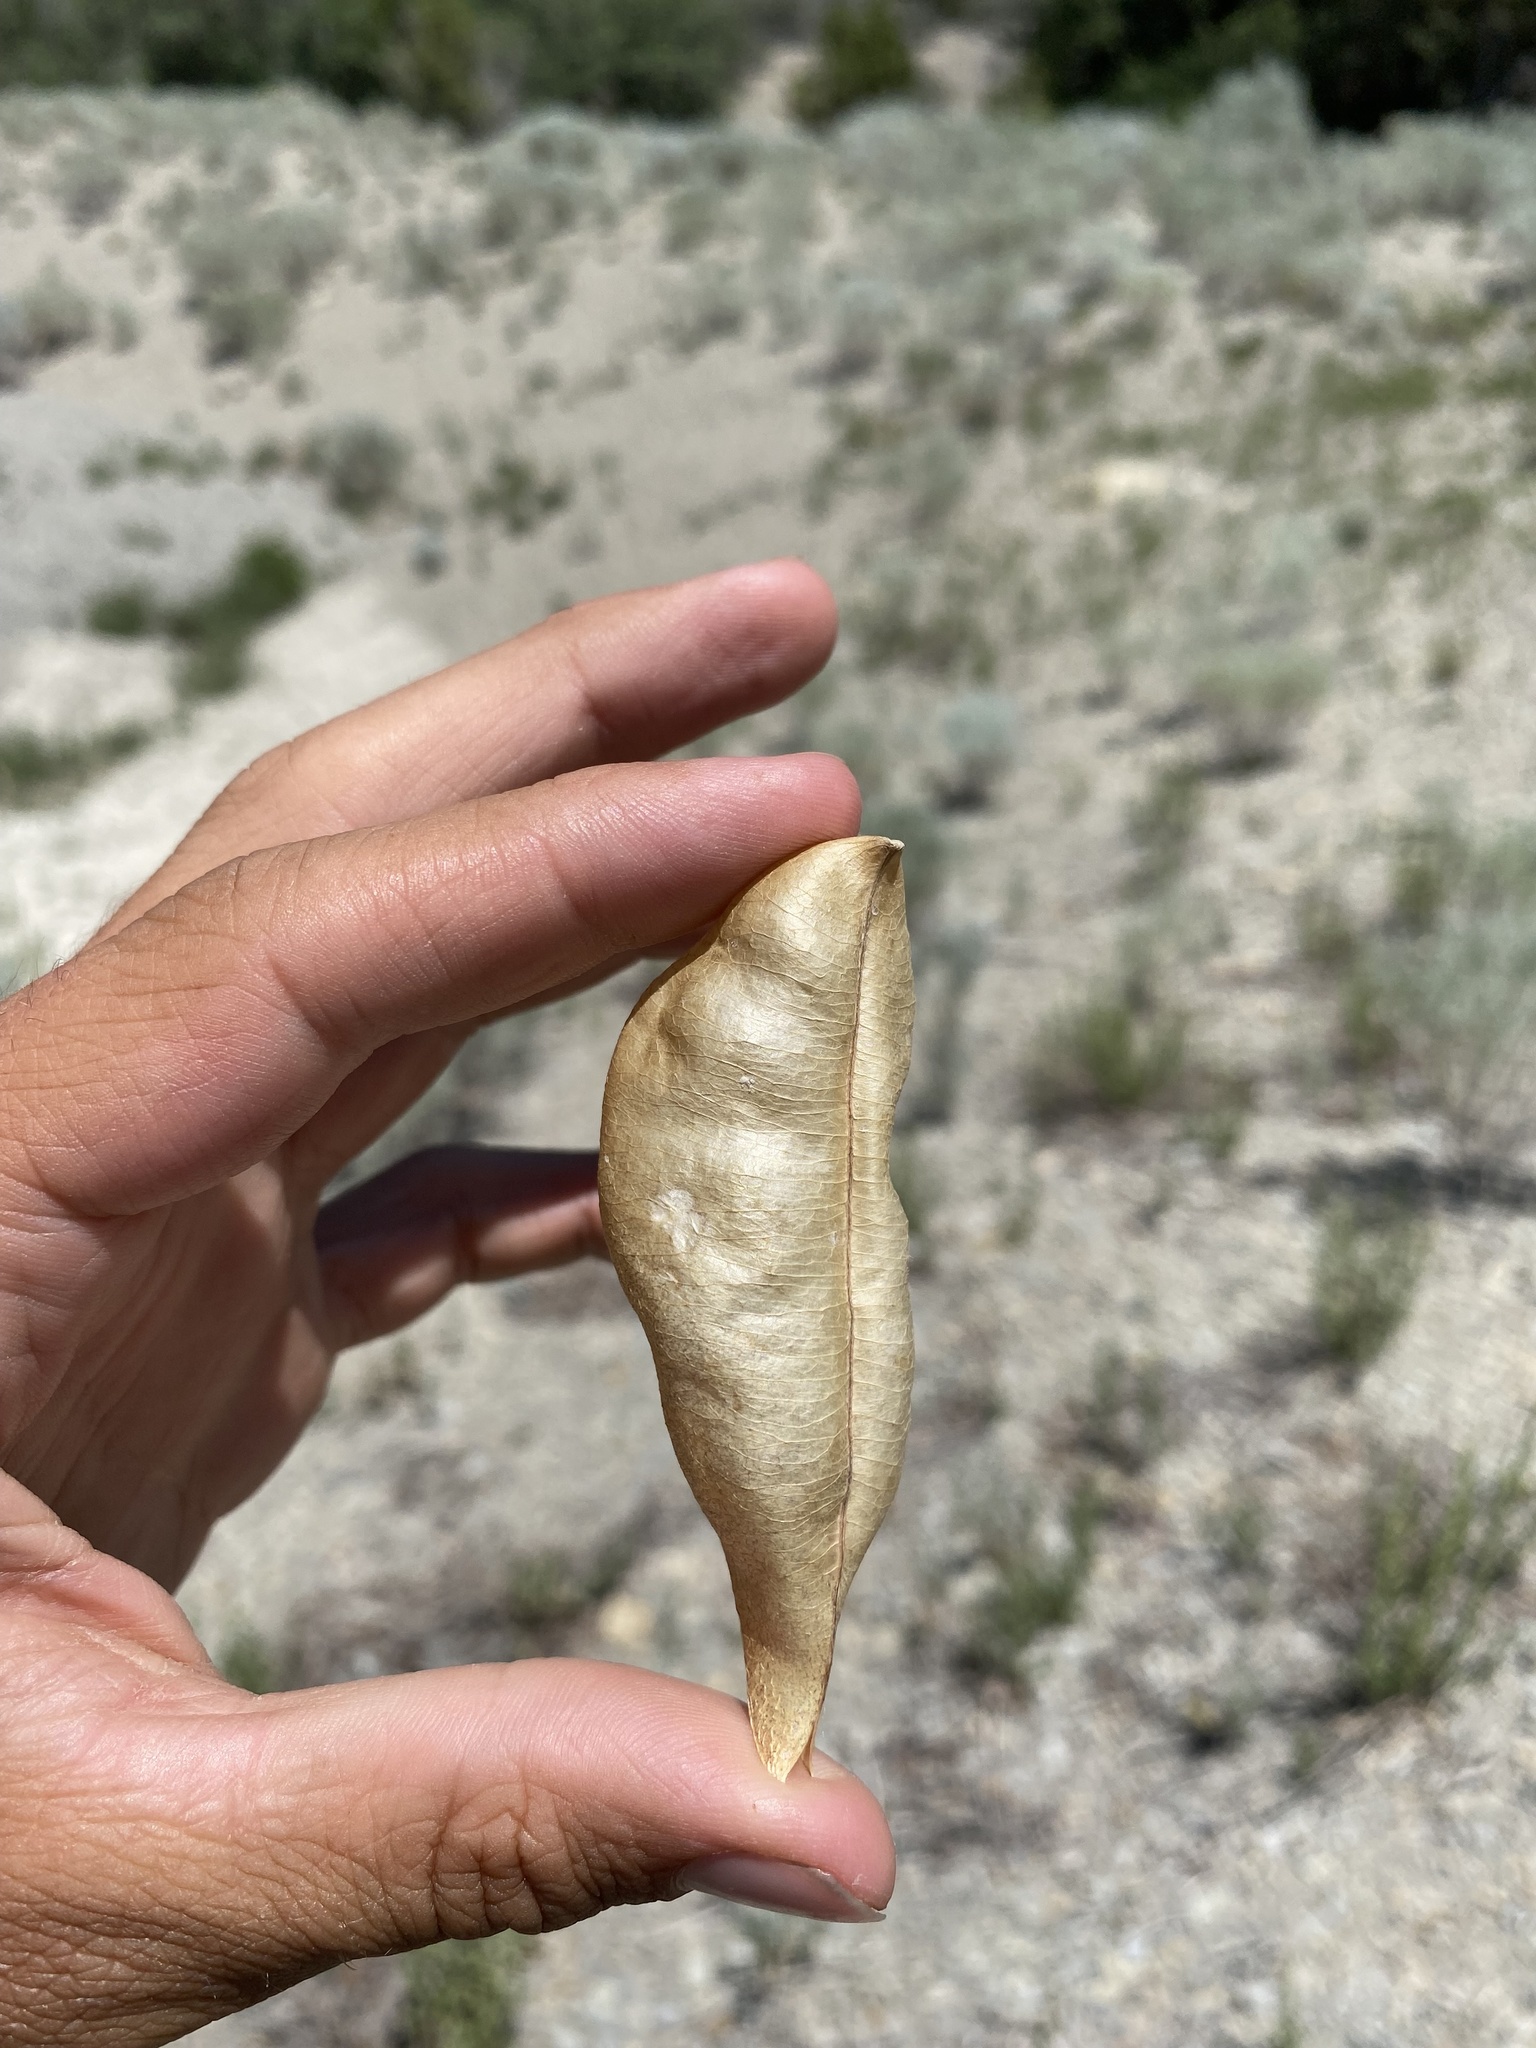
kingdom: Plantae
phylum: Tracheophyta
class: Magnoliopsida
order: Fabales
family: Fabaceae
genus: Astragalus
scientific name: Astragalus megacarpus
